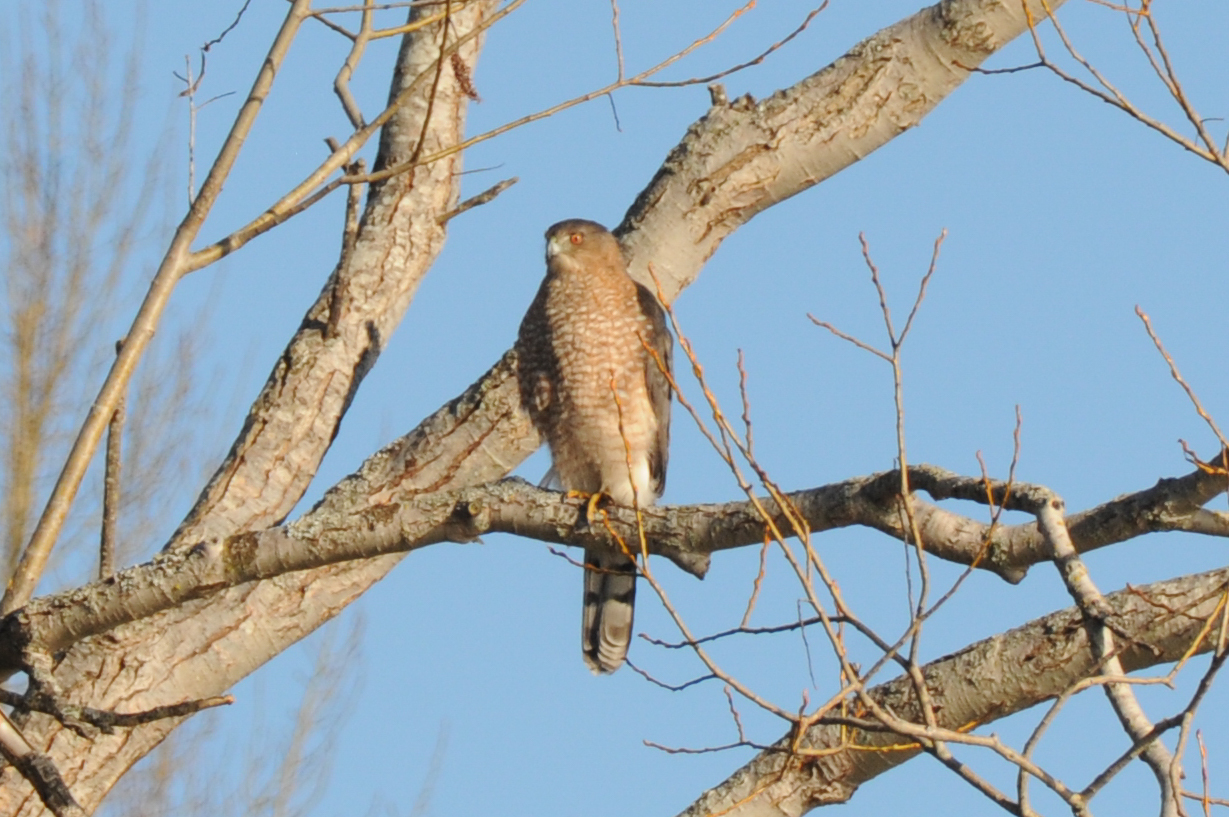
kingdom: Animalia
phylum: Chordata
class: Aves
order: Accipitriformes
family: Accipitridae
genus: Accipiter
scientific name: Accipiter cooperii
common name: Cooper's hawk
